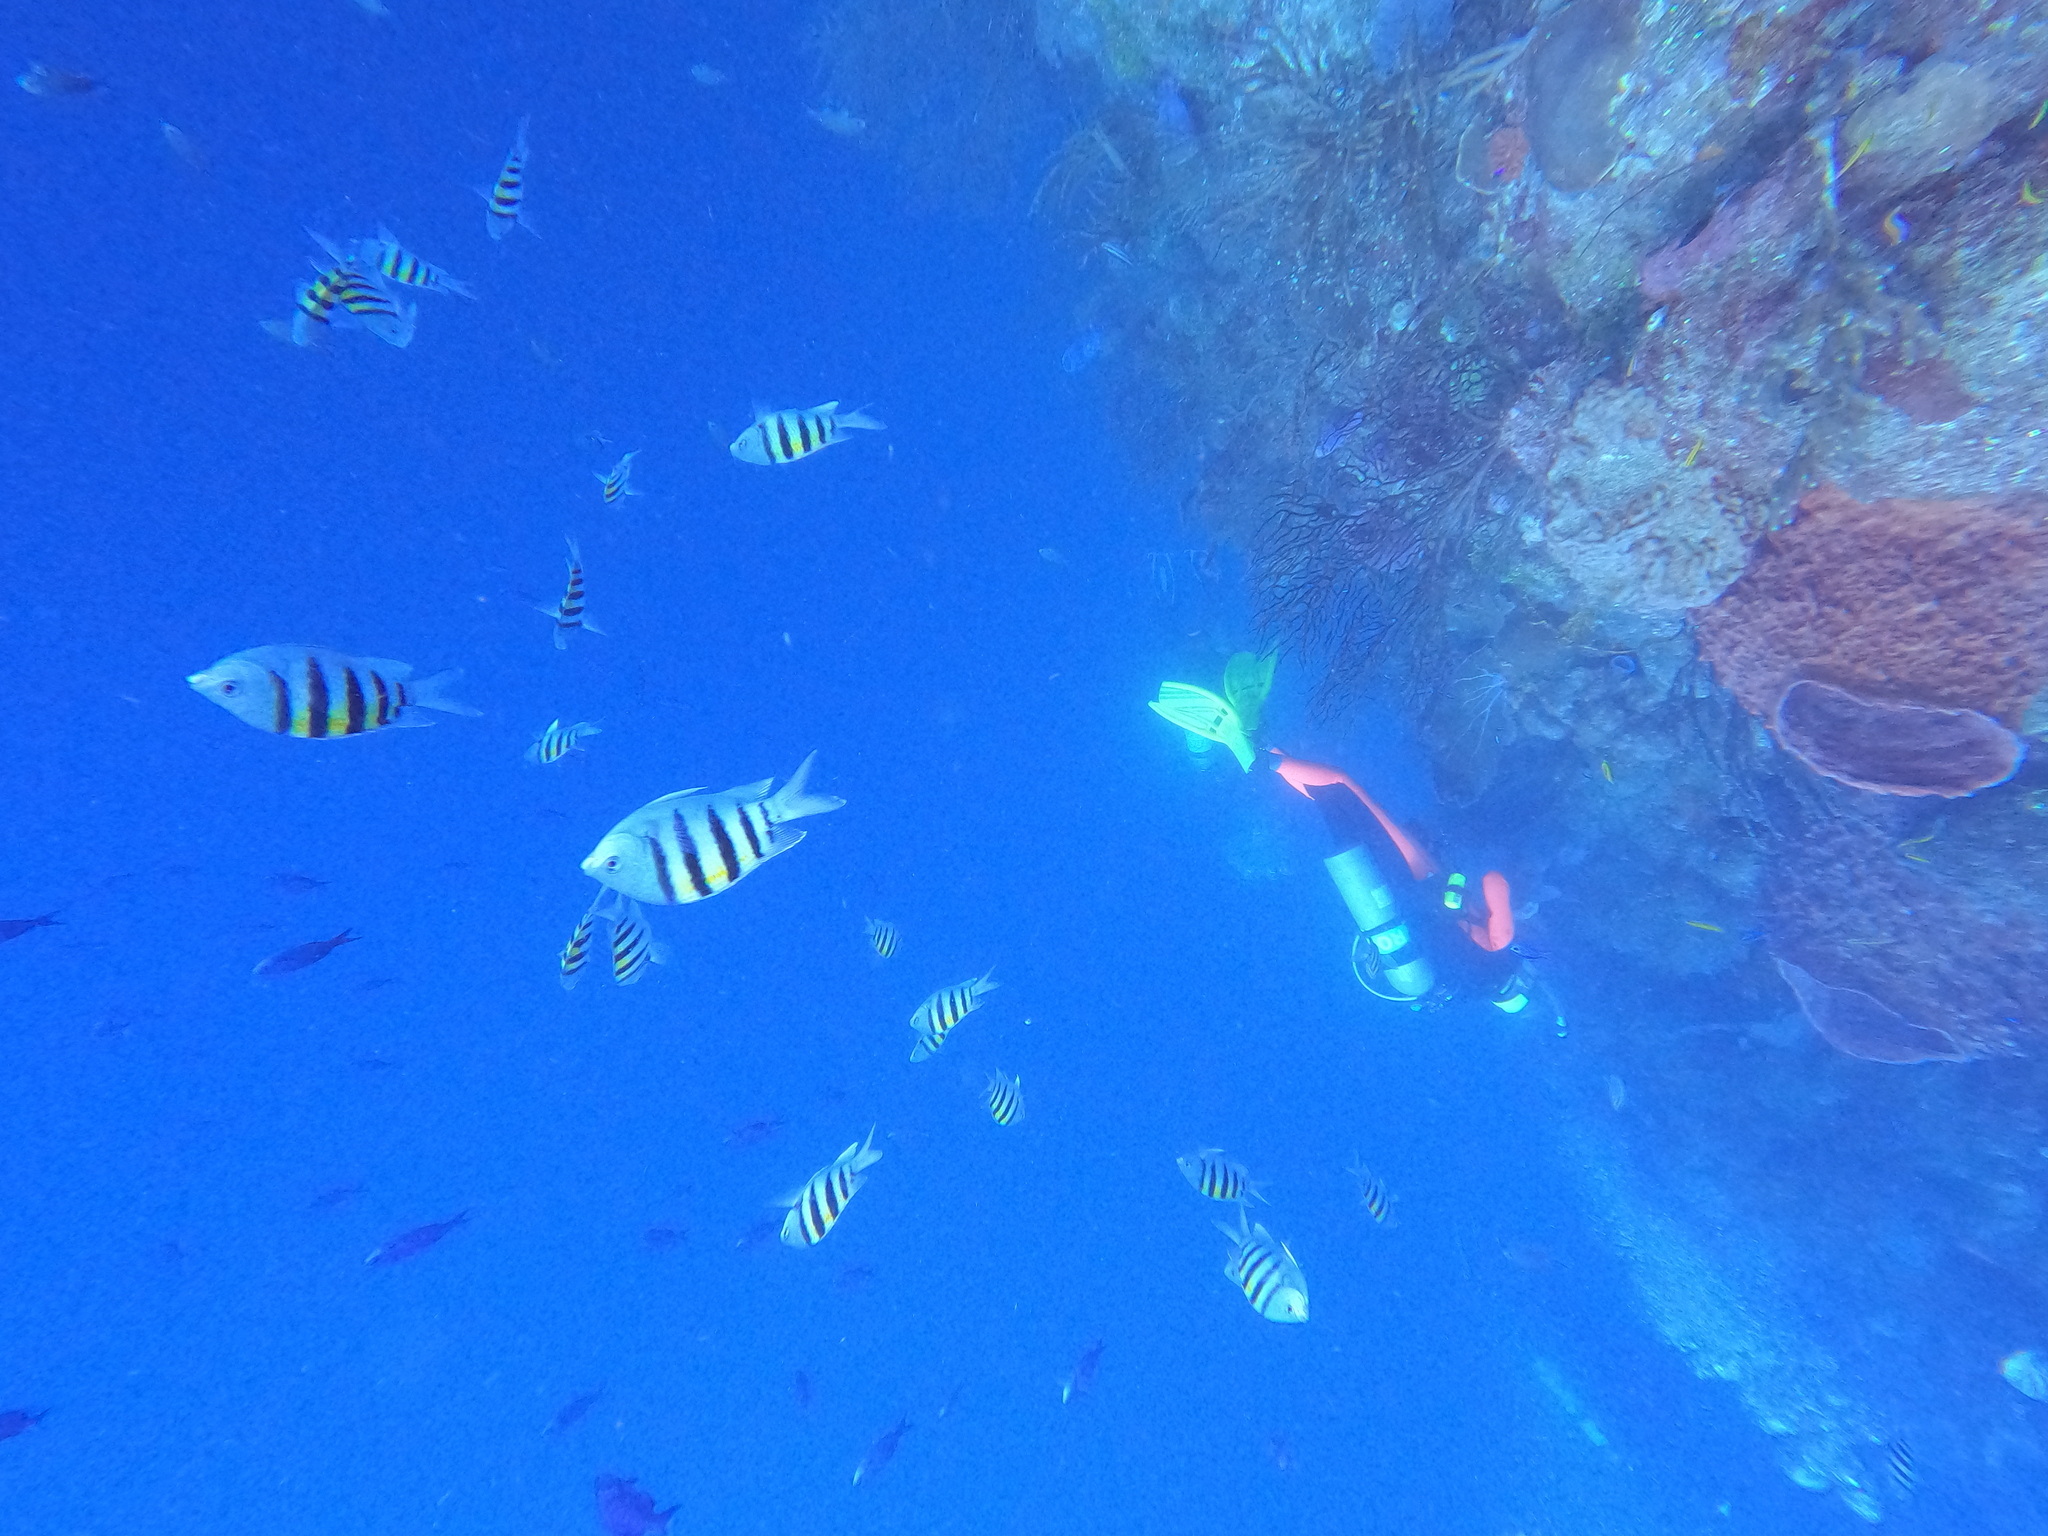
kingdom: Animalia
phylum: Chordata
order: Perciformes
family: Pomacentridae
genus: Abudefduf
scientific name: Abudefduf saxatilis
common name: Sergeant major
